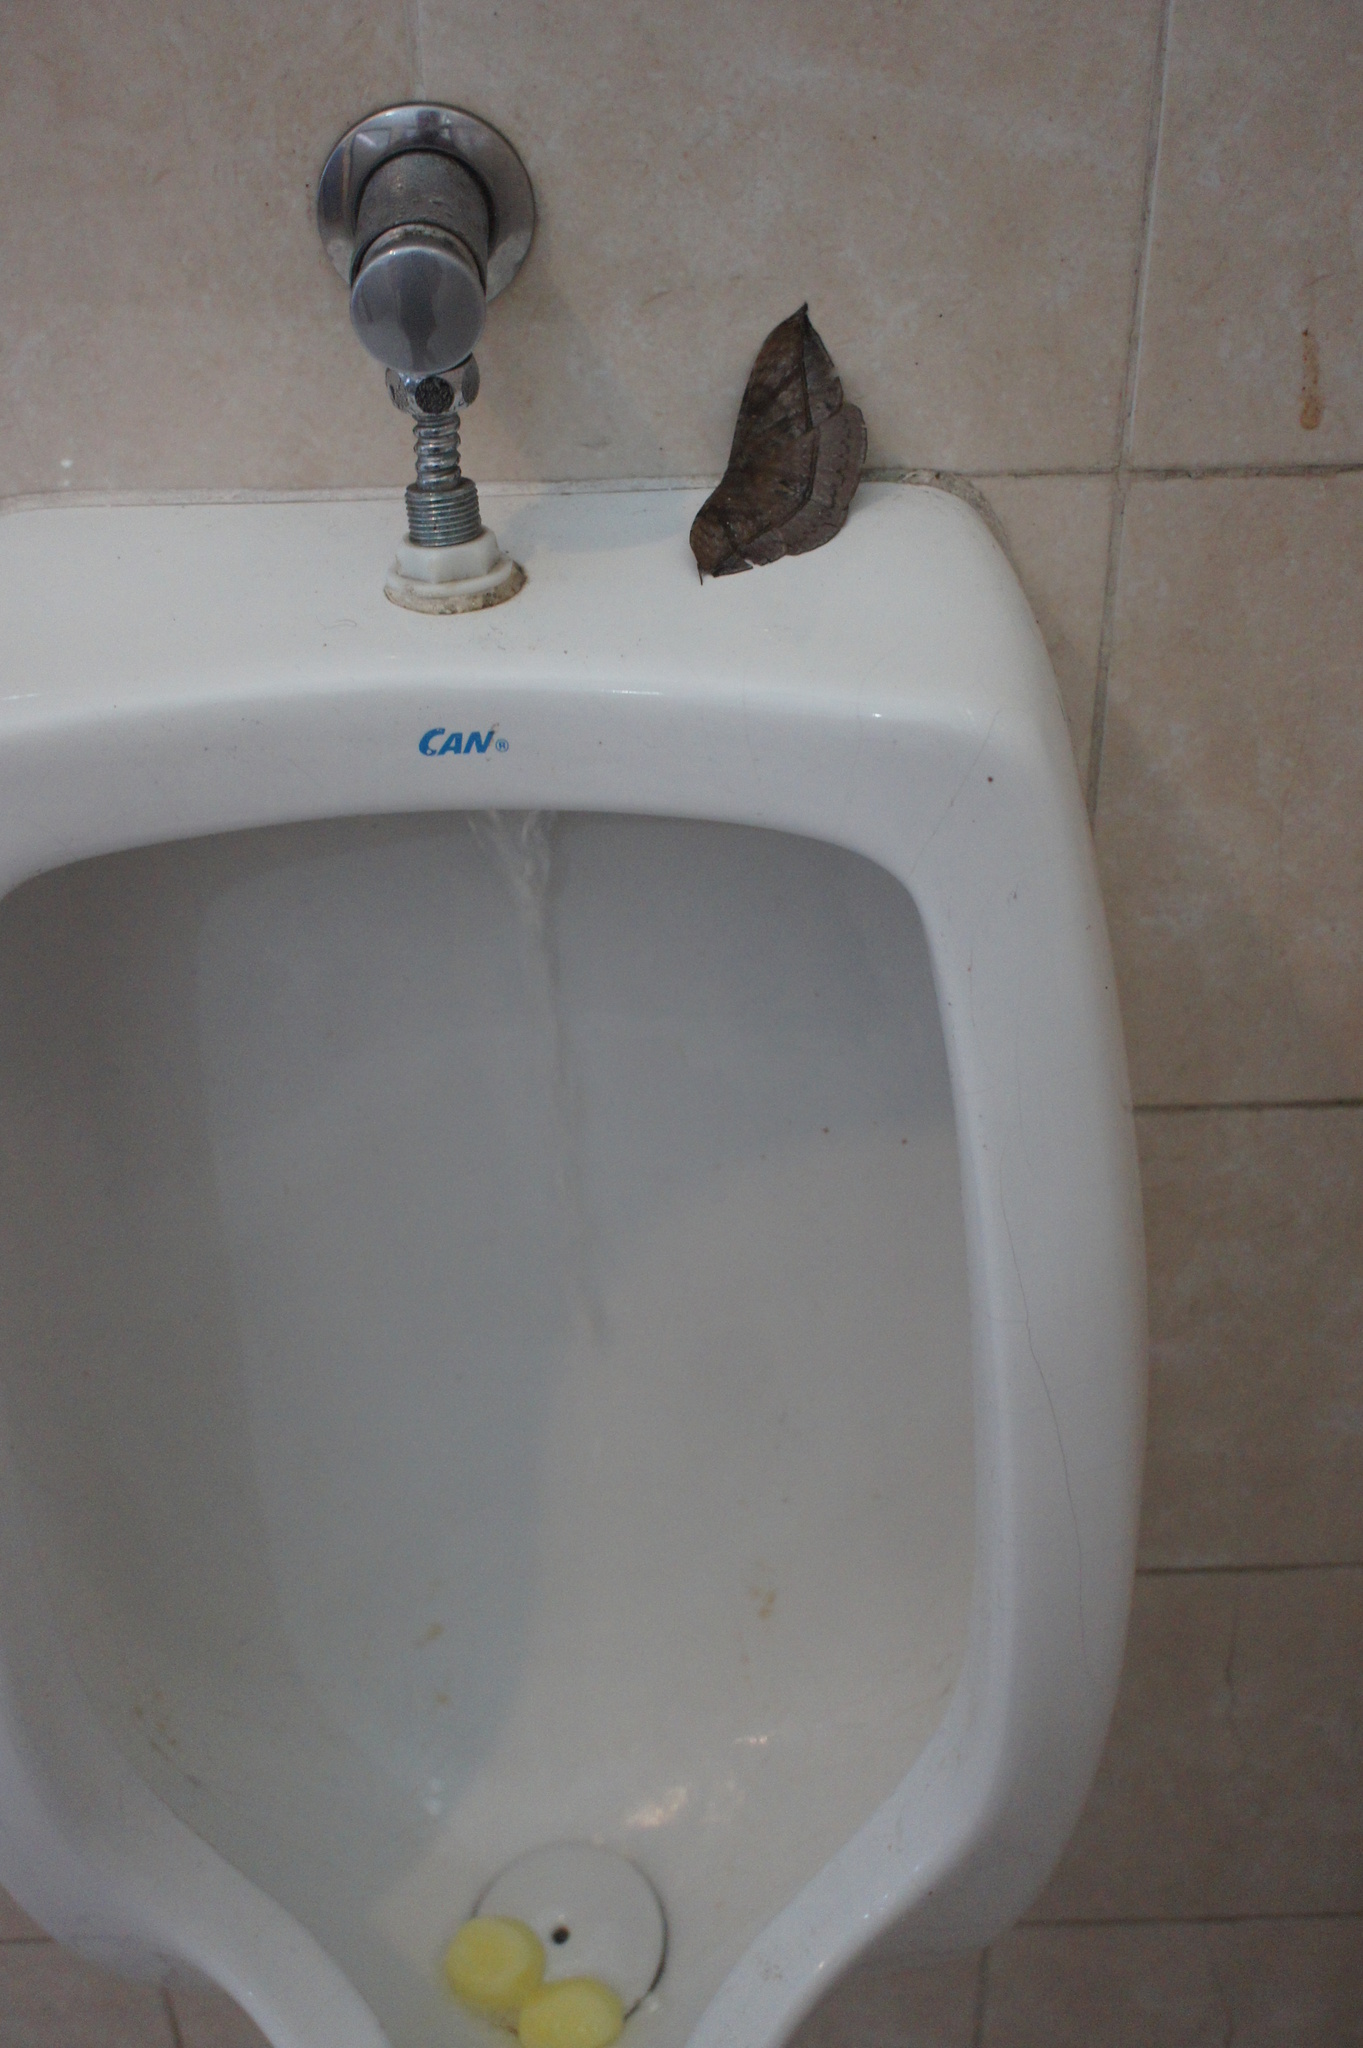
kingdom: Animalia
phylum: Arthropoda
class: Insecta
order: Lepidoptera
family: Eupterotidae
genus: Eupterote
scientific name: Eupterote niassana
